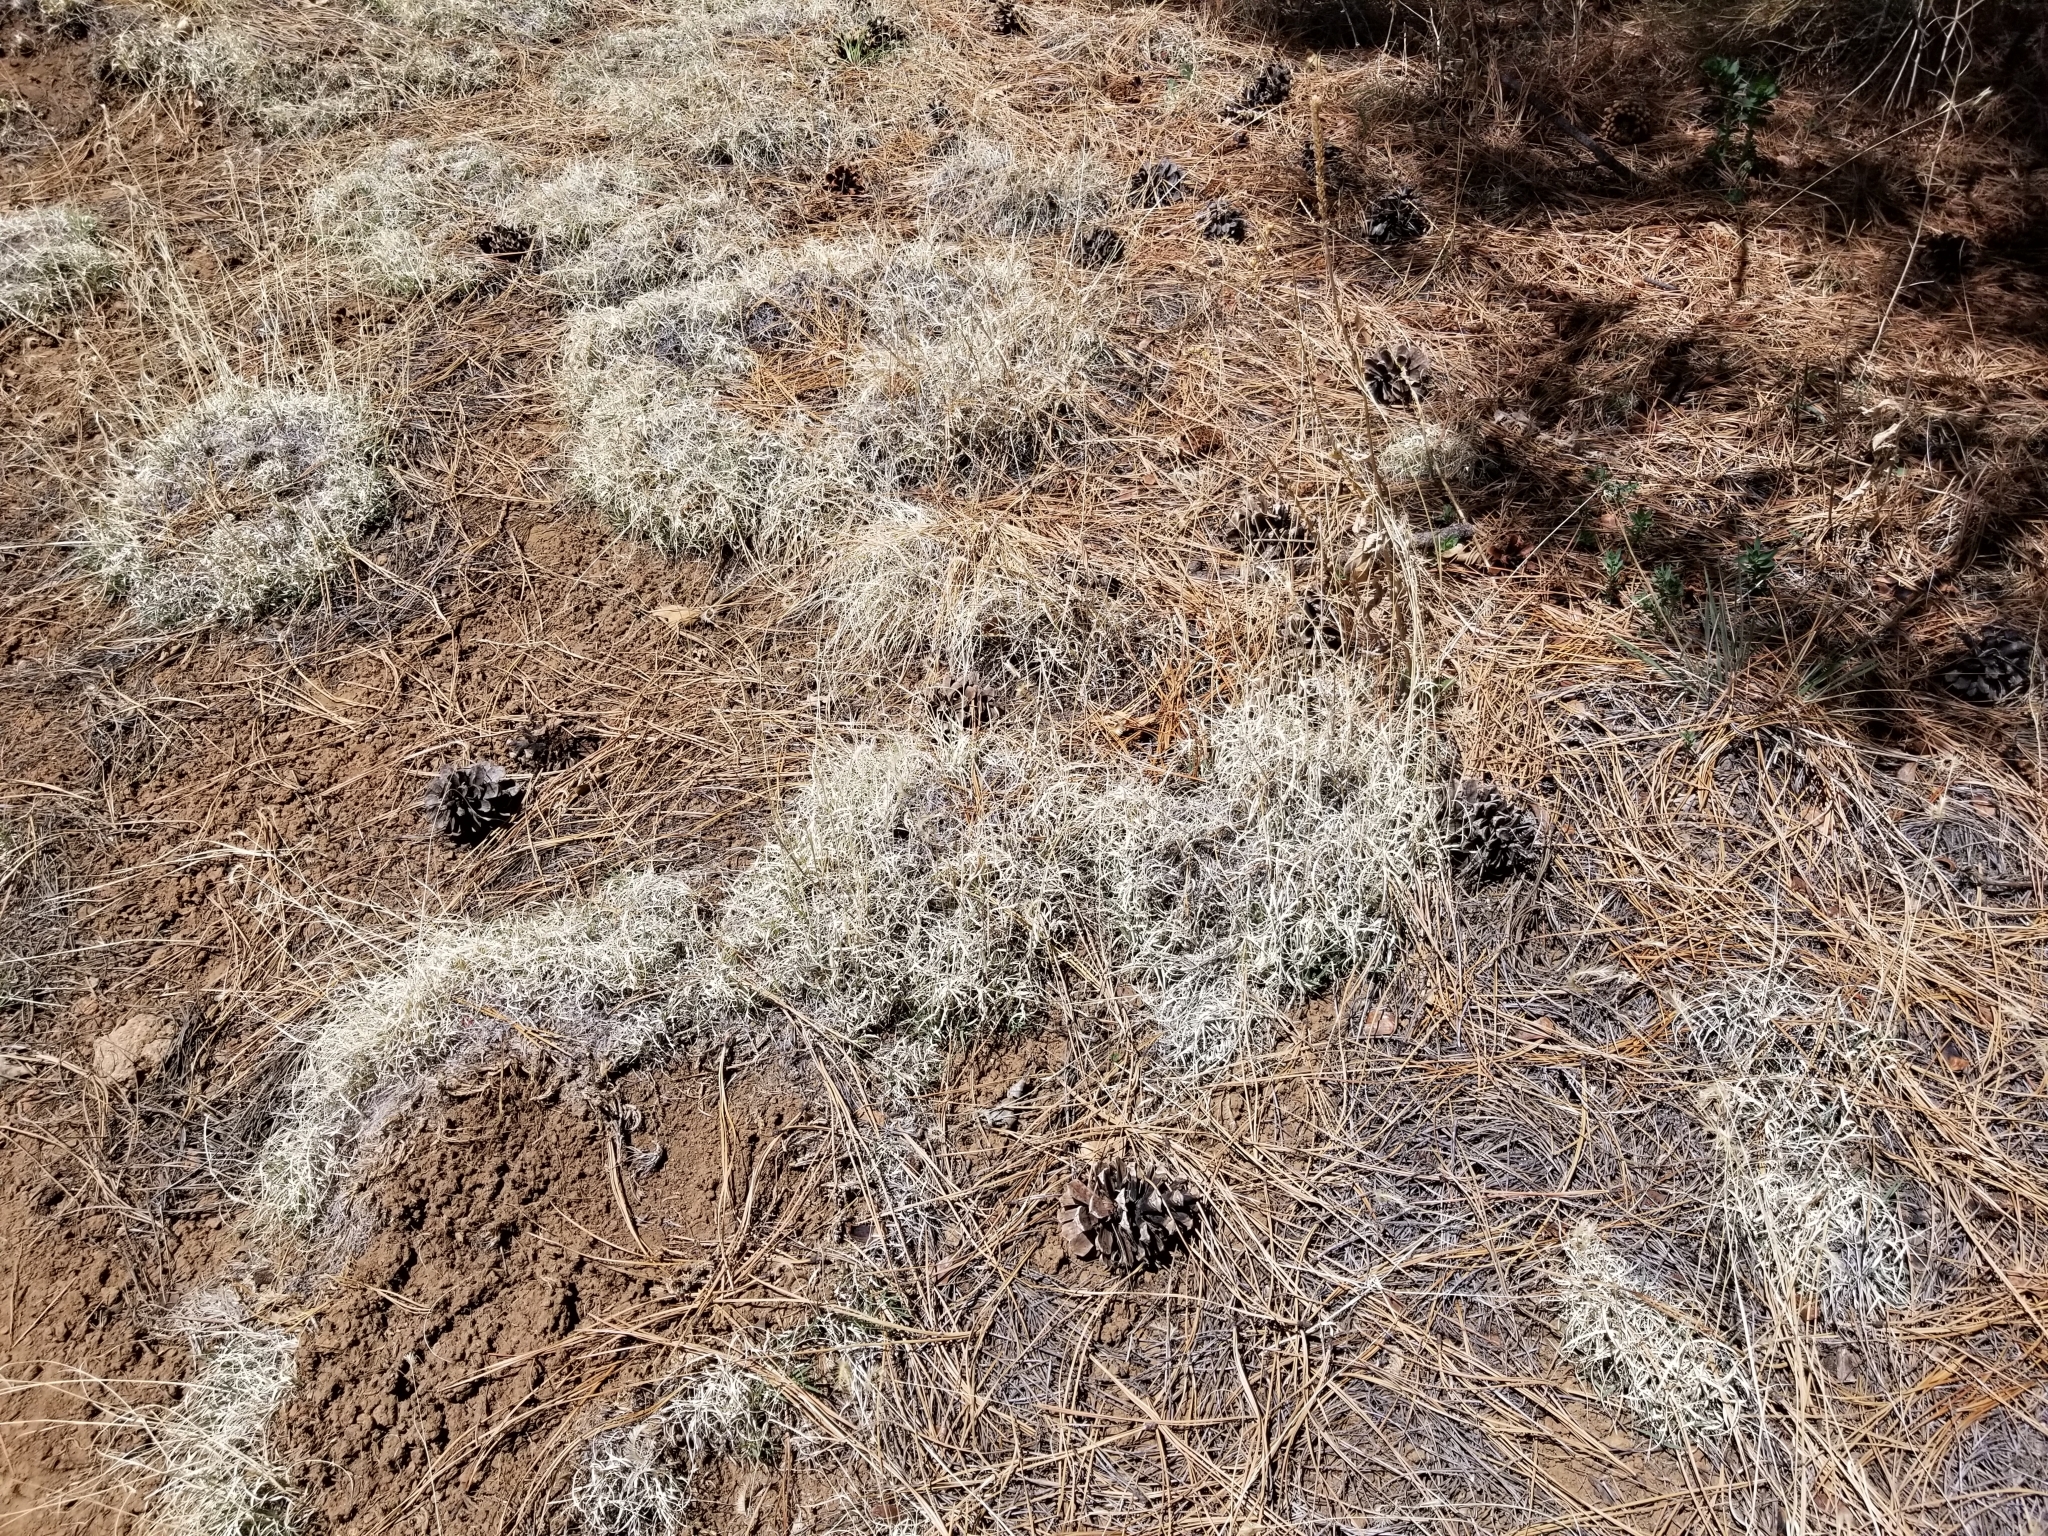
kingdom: Plantae
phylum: Tracheophyta
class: Liliopsida
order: Poales
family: Poaceae
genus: Bouteloua
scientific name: Bouteloua gracilis
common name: Blue grama
